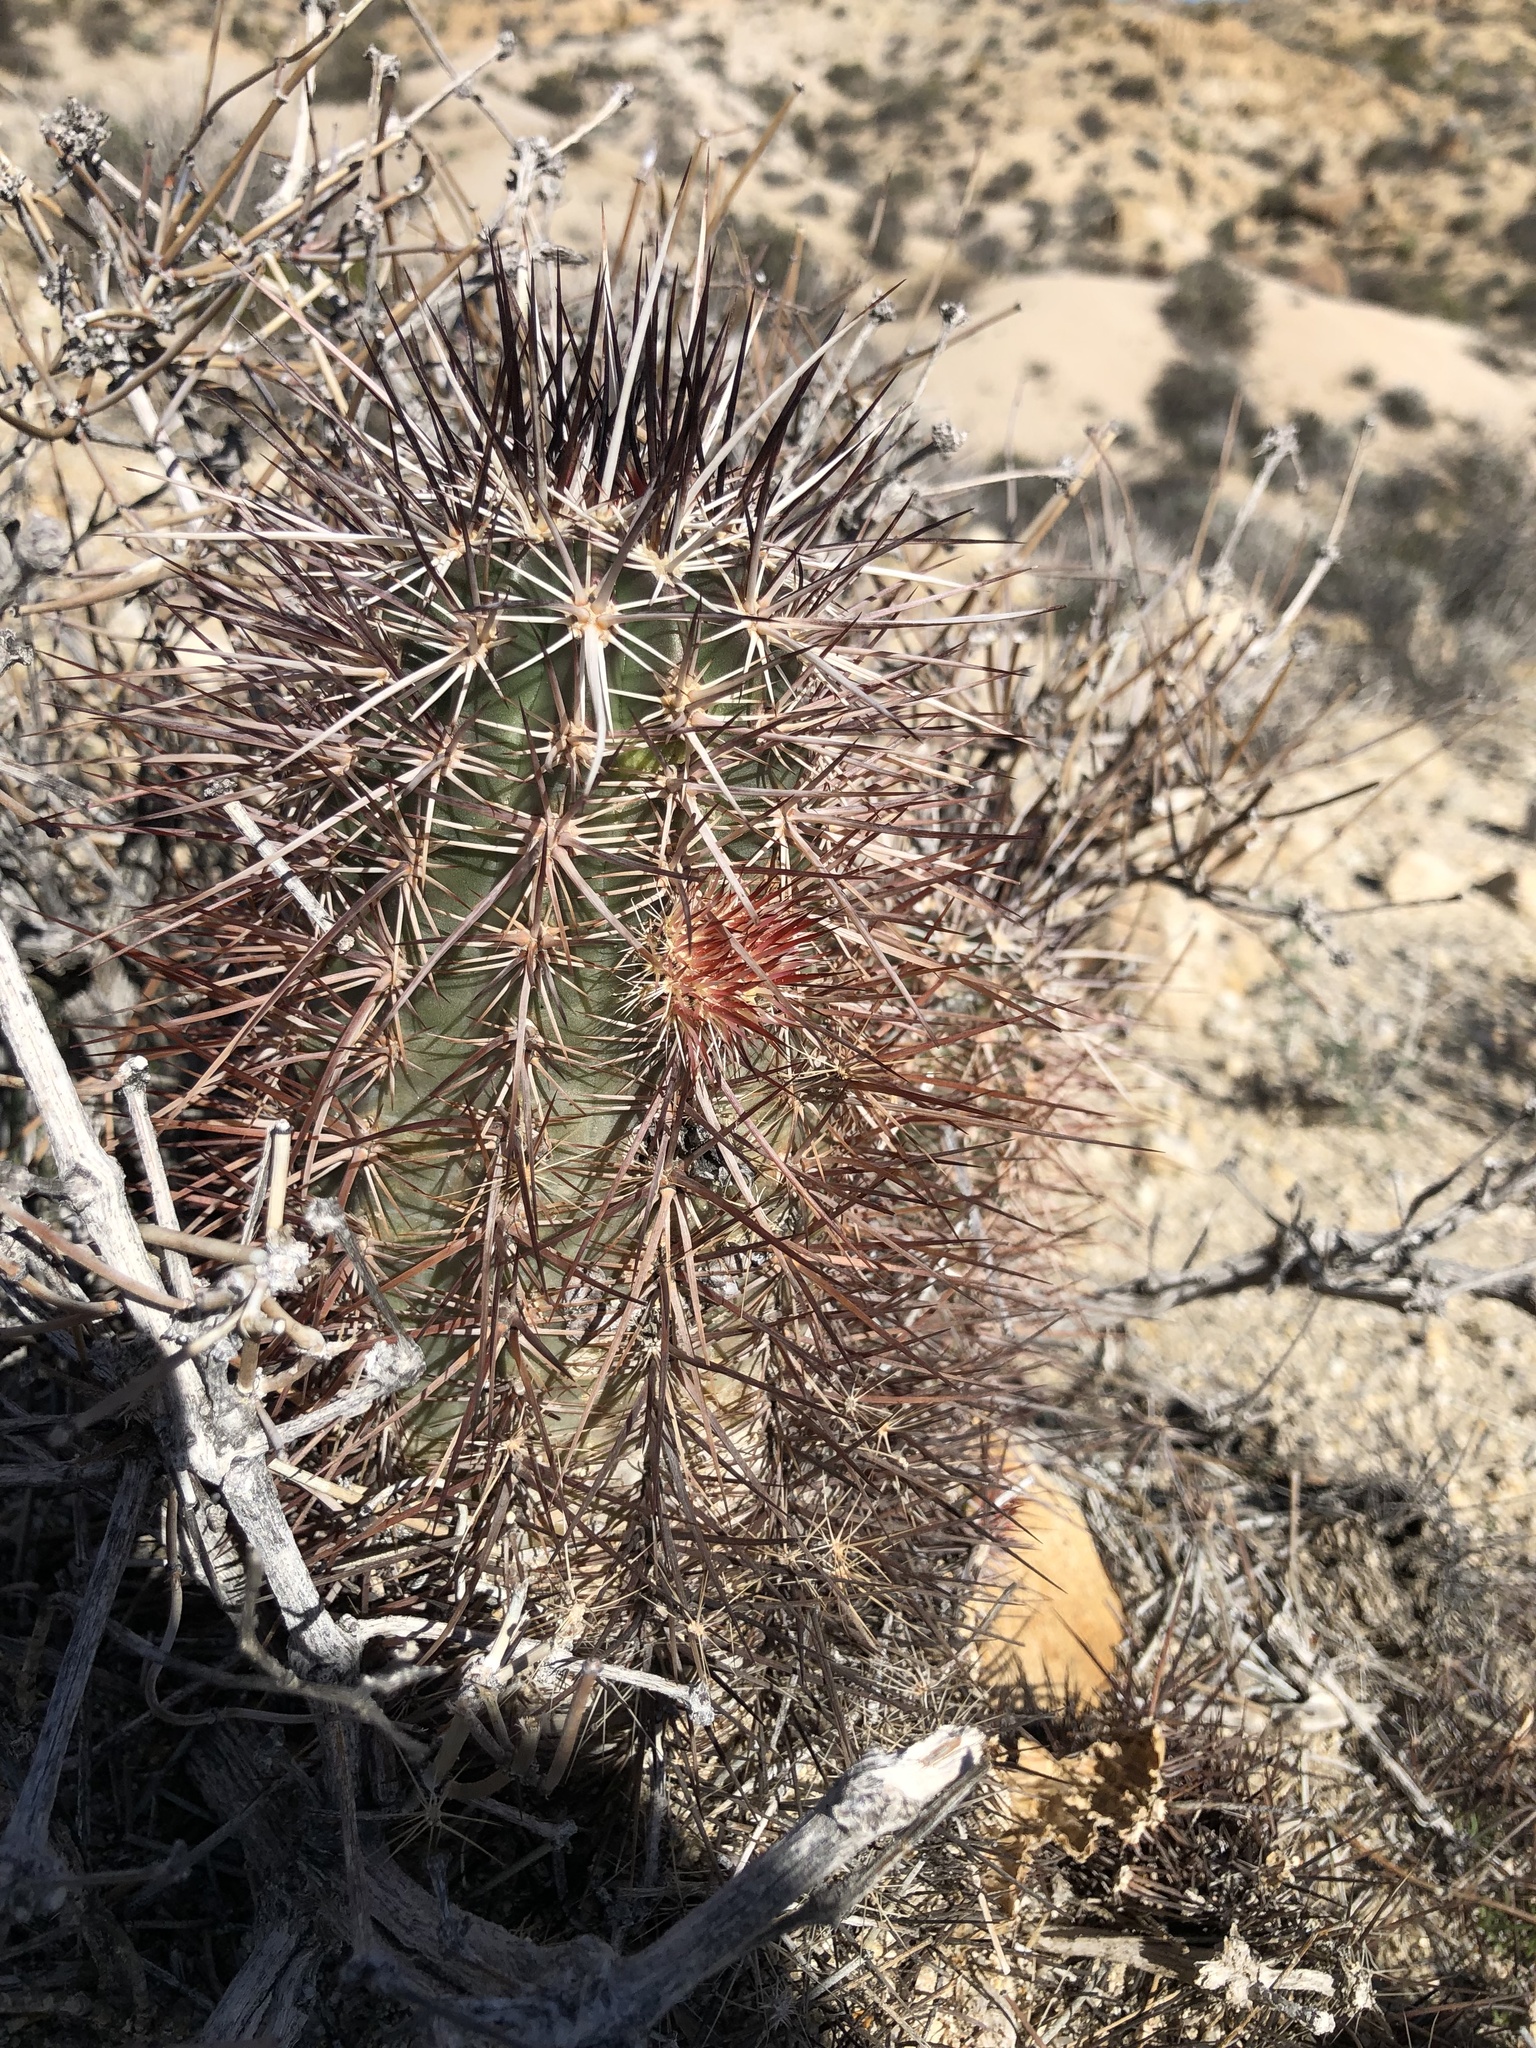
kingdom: Plantae
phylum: Tracheophyta
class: Magnoliopsida
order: Caryophyllales
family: Cactaceae
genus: Echinocereus
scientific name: Echinocereus engelmannii
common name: Engelmann's hedgehog cactus
